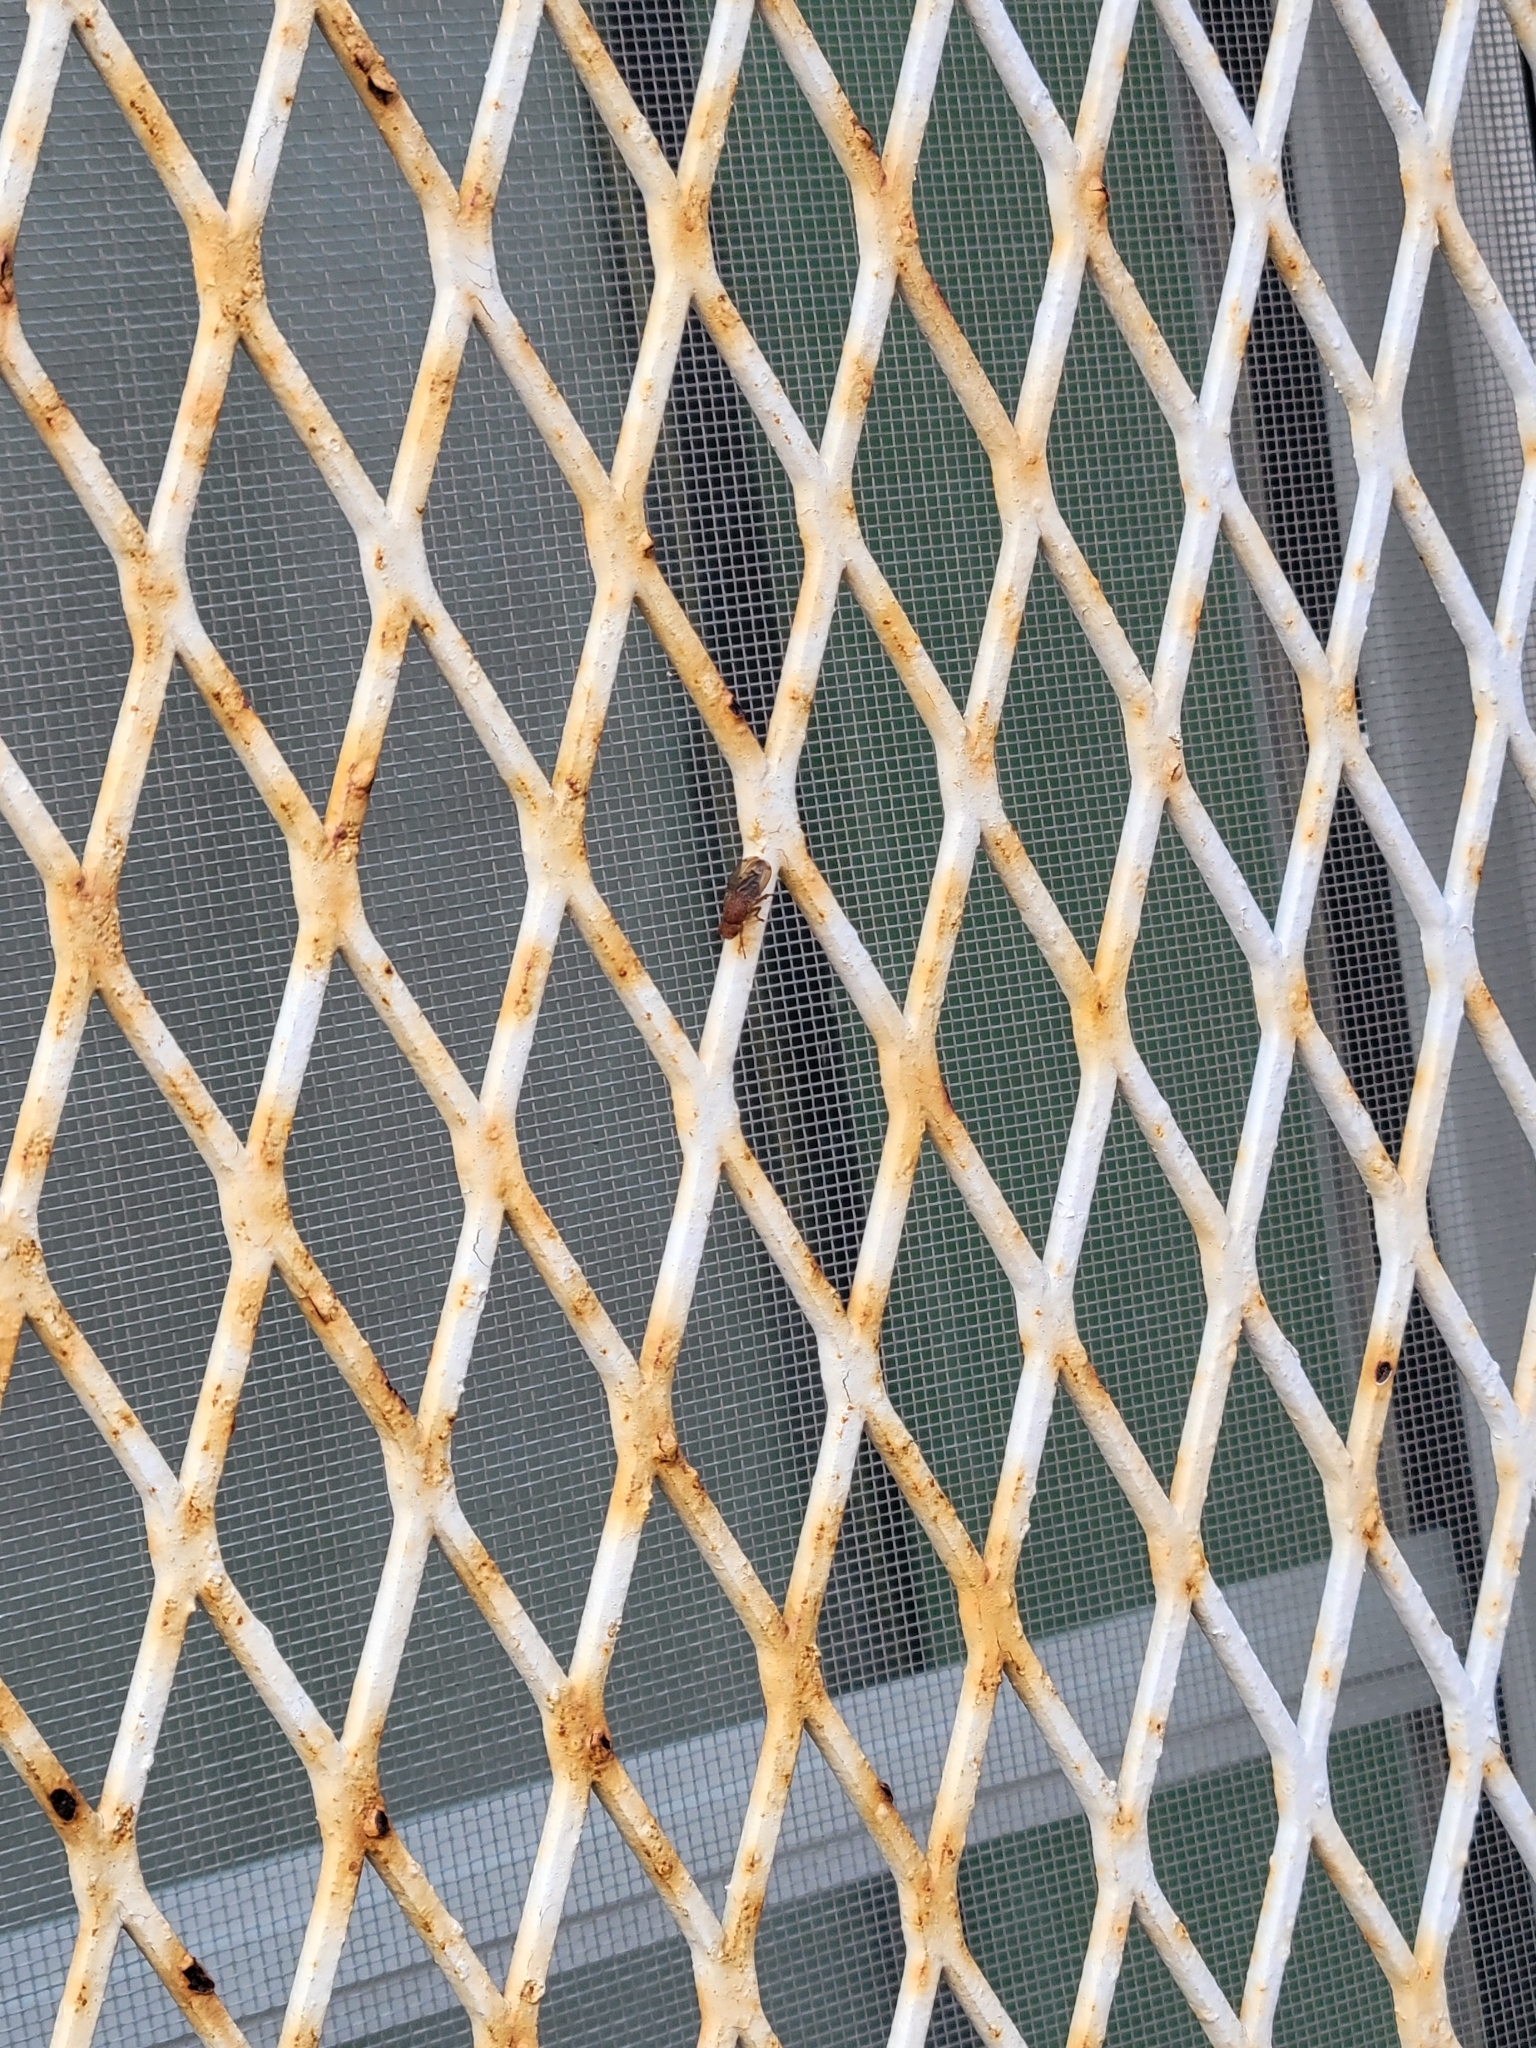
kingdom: Animalia
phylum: Arthropoda
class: Insecta
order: Diptera
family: Heleomyzidae
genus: Suillia
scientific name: Suillia quinquepunctata
